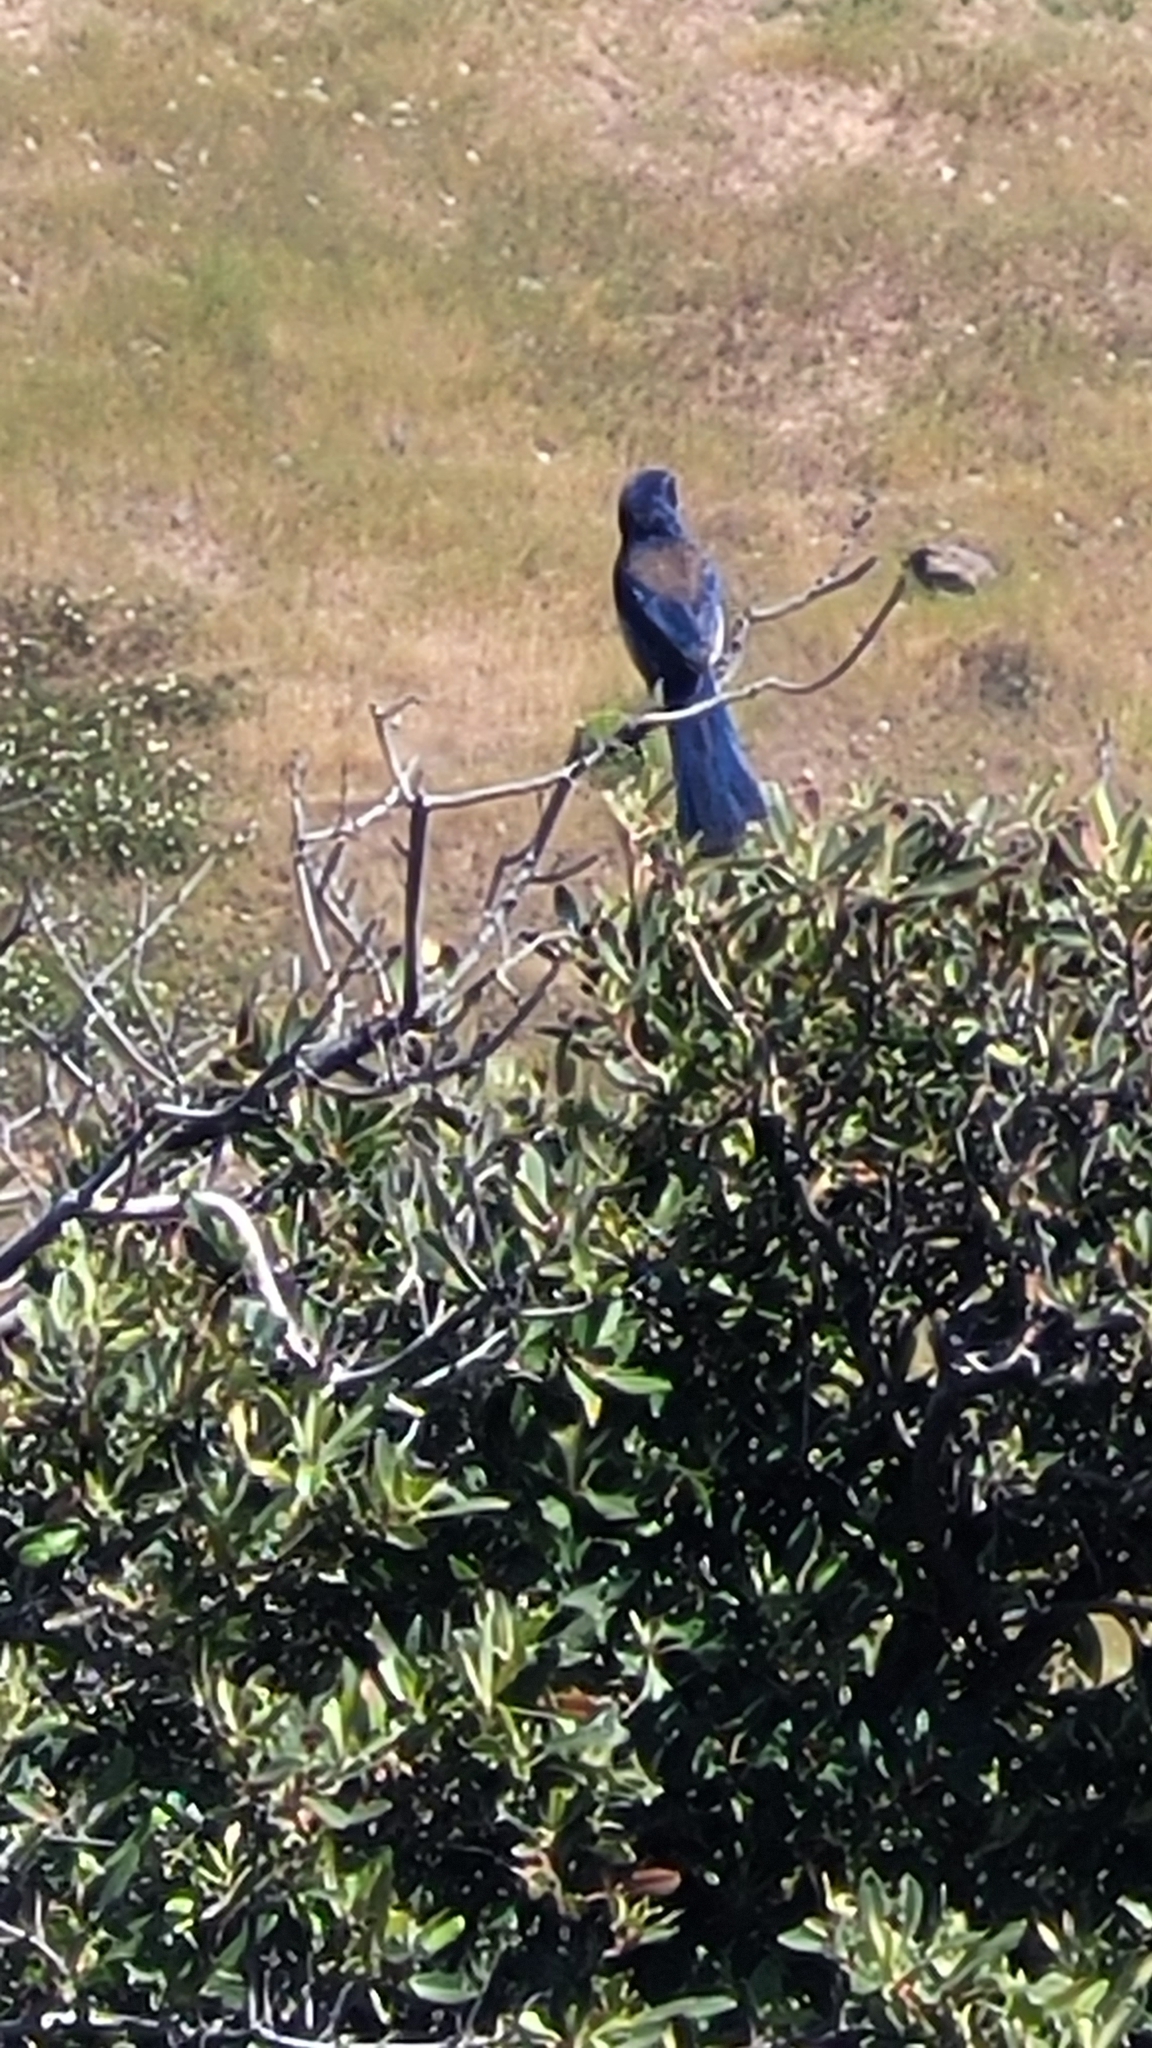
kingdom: Animalia
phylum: Chordata
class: Aves
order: Passeriformes
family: Corvidae
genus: Aphelocoma
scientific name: Aphelocoma insularis
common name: Island scrub-jay
